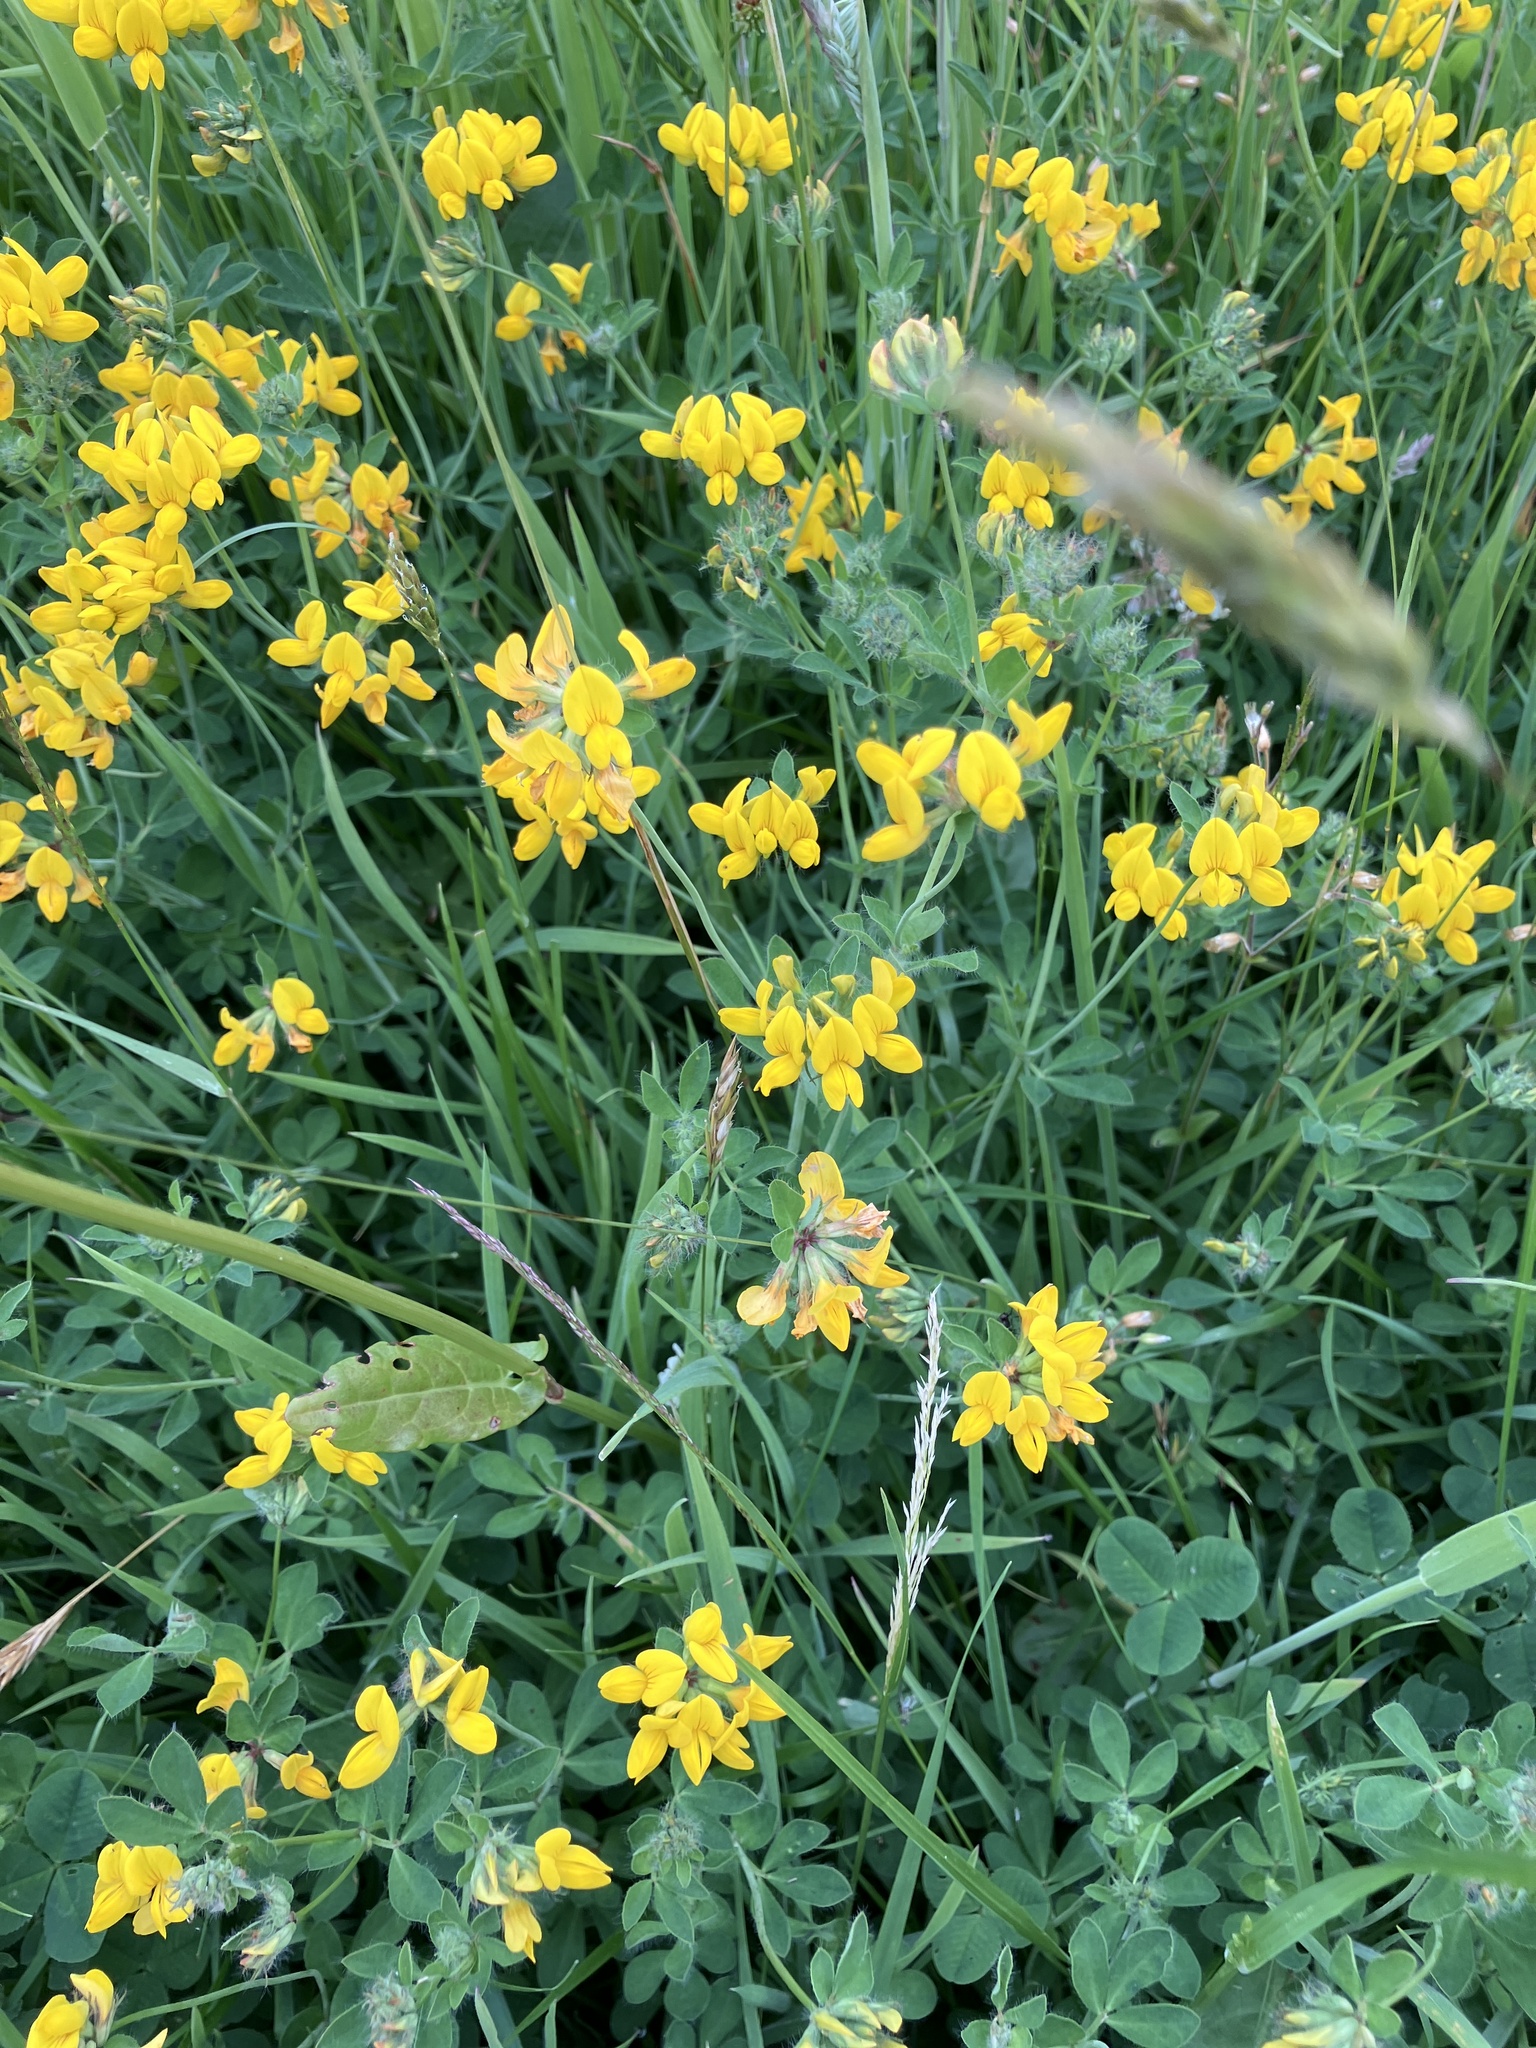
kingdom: Plantae
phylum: Tracheophyta
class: Magnoliopsida
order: Fabales
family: Fabaceae
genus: Lathyrus
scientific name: Lathyrus pratensis
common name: Meadow vetchling
